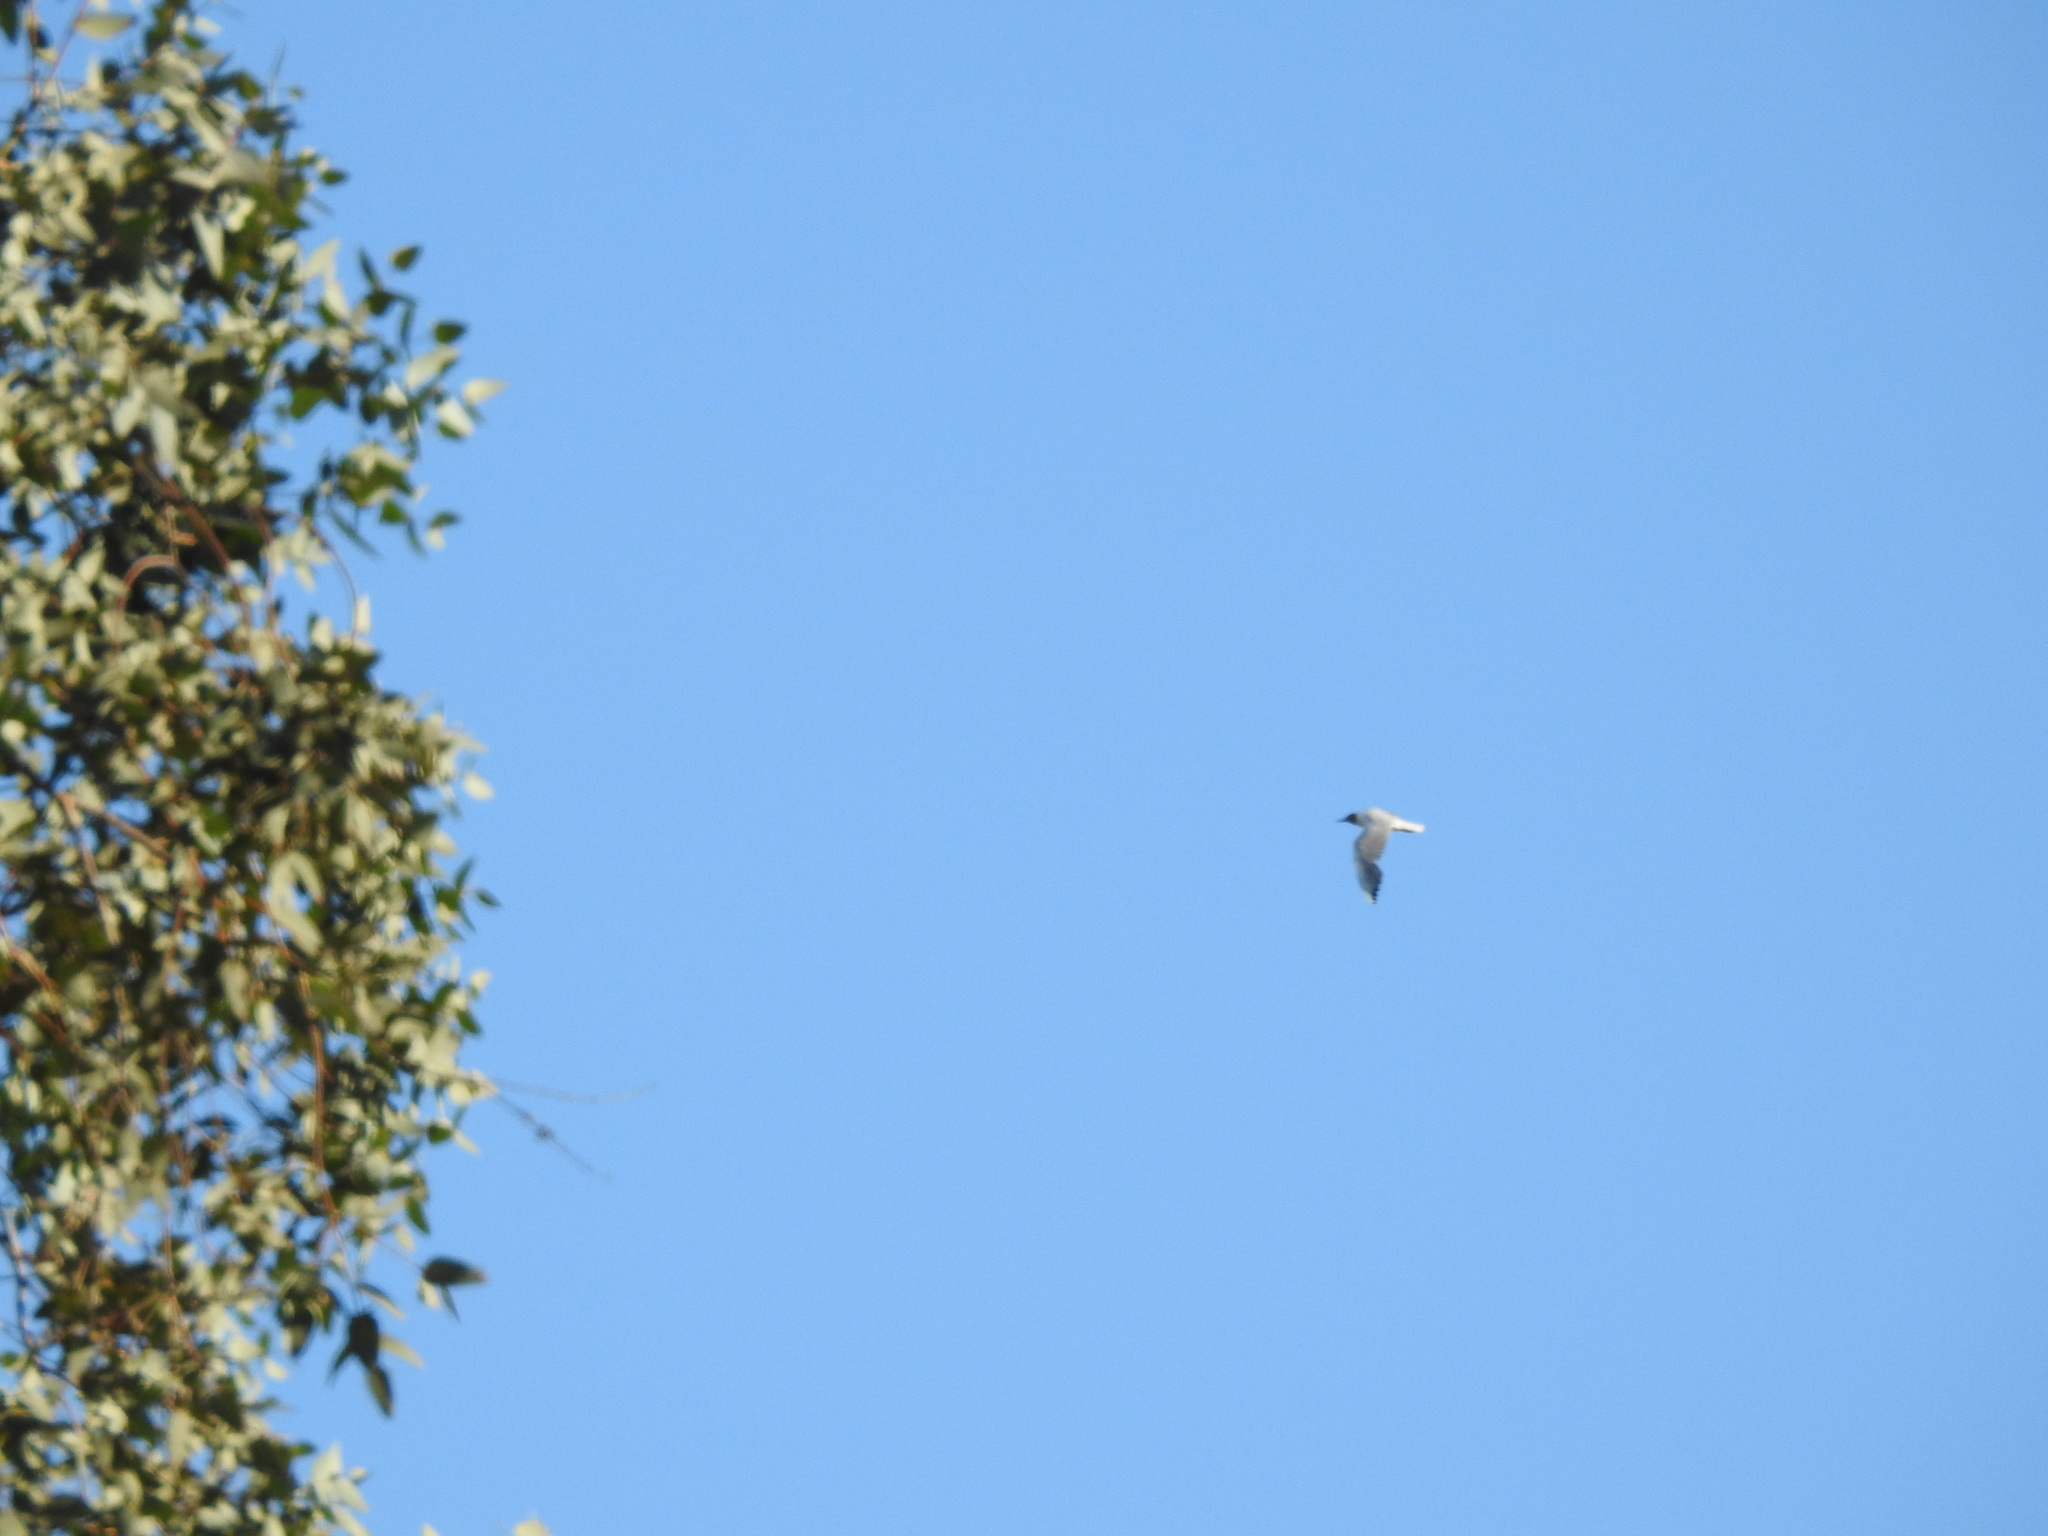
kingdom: Animalia
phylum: Chordata
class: Aves
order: Charadriiformes
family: Laridae
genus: Chroicocephalus
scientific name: Chroicocephalus maculipennis
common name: Brown-hooded gull
